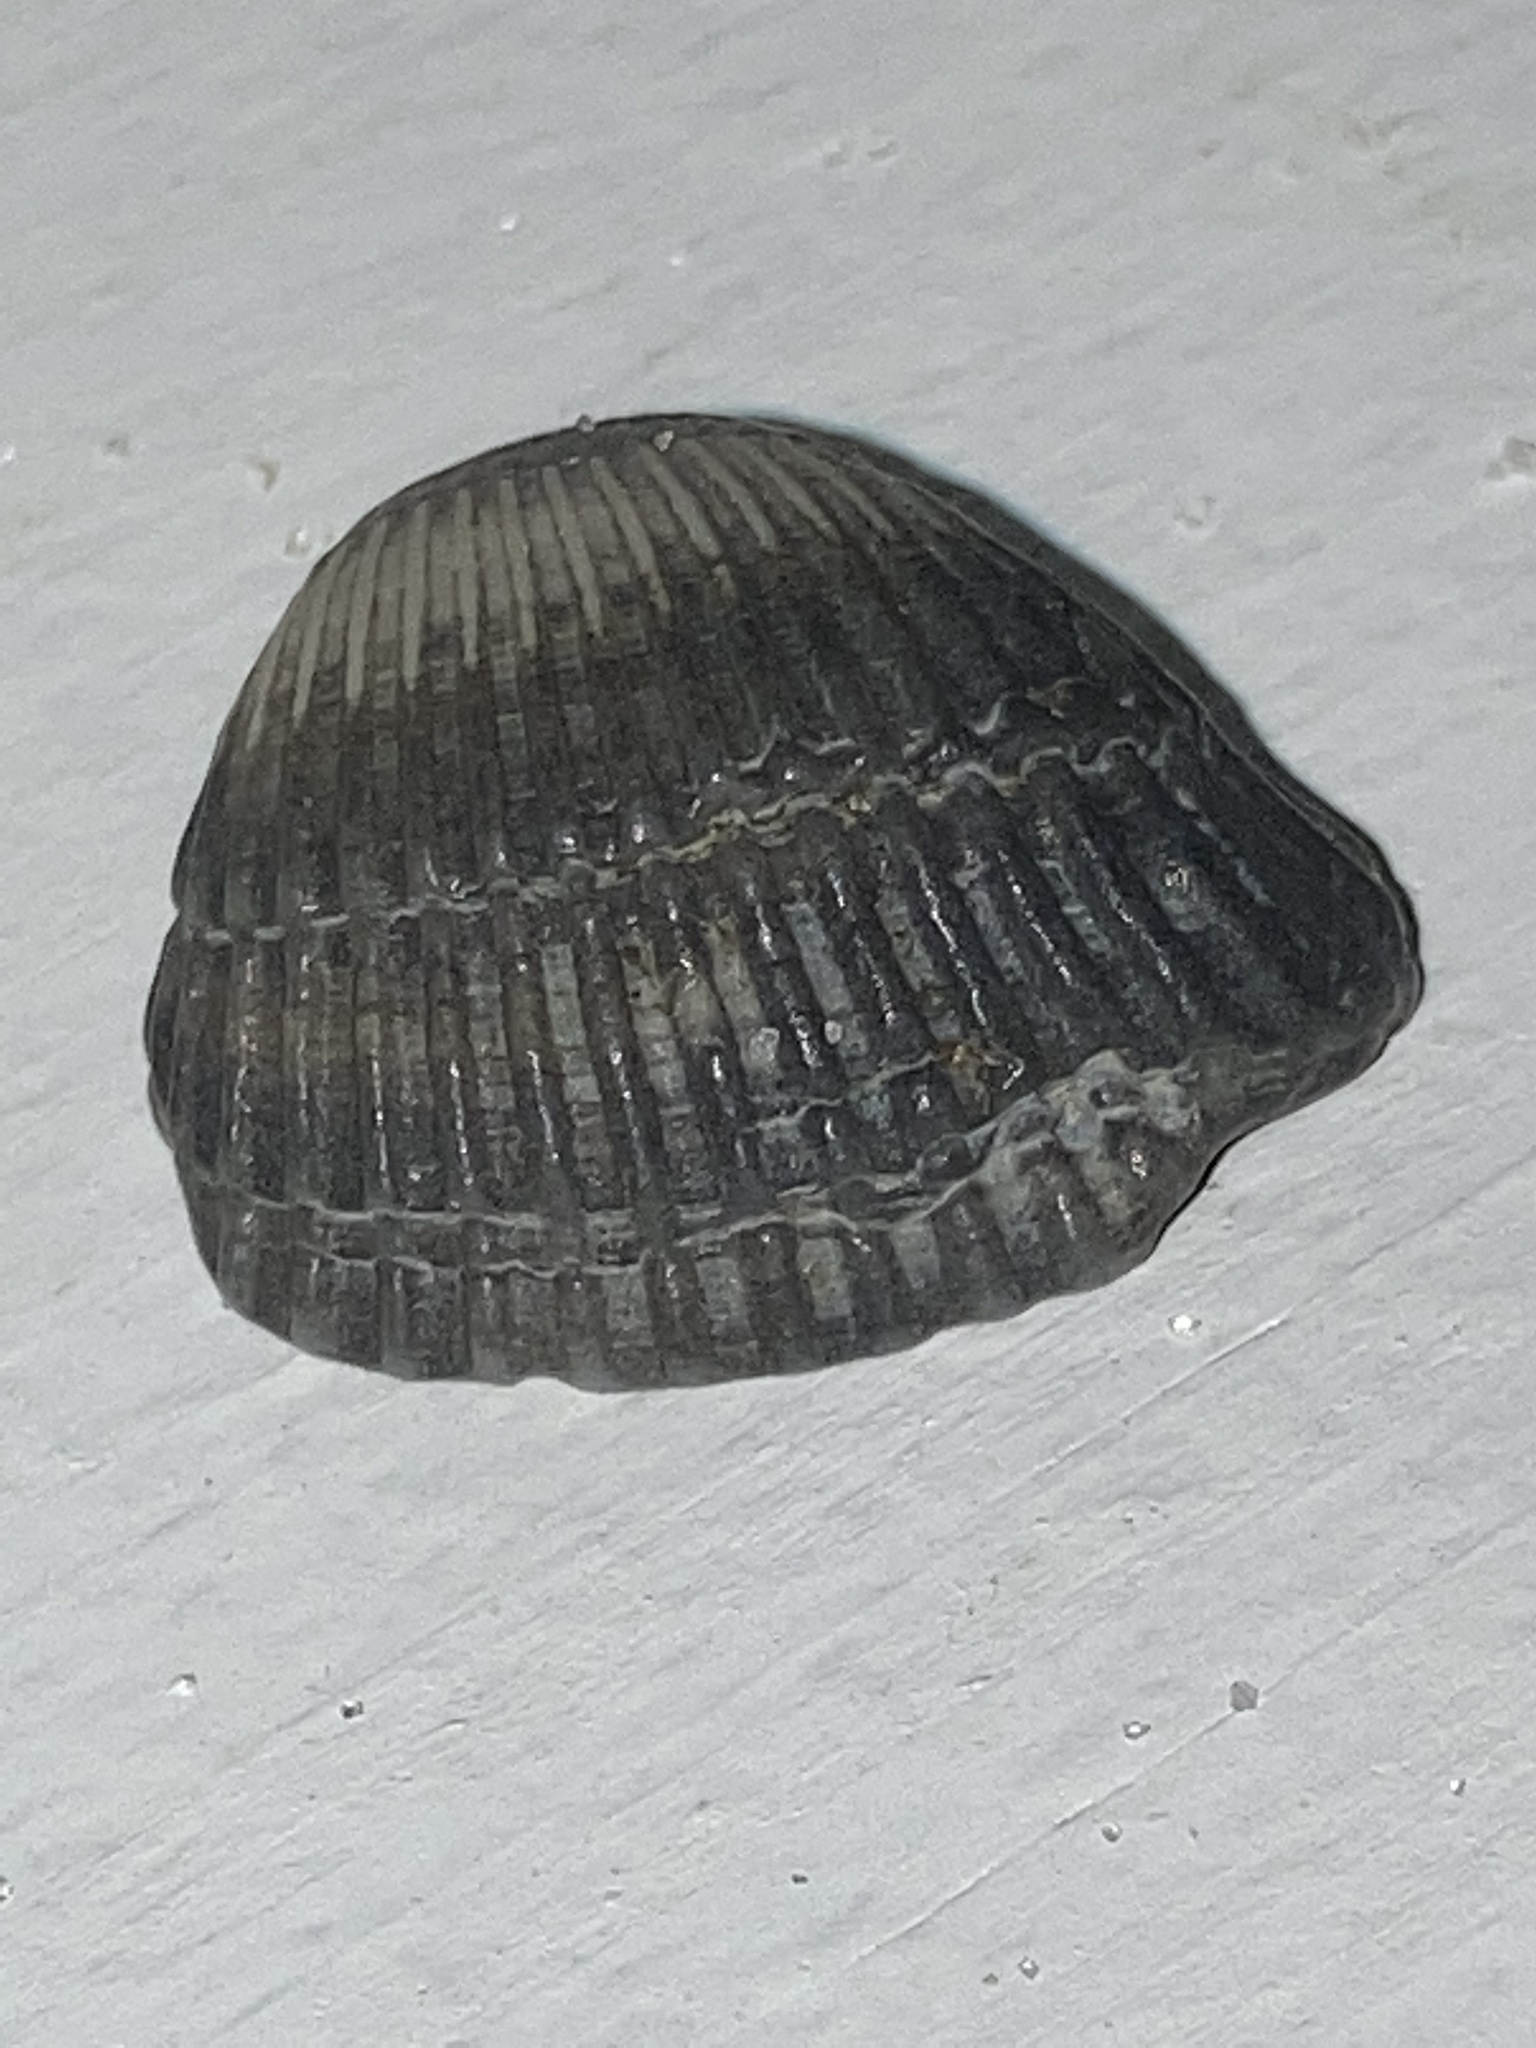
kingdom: Animalia
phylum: Mollusca
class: Bivalvia
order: Arcida
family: Noetiidae
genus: Noetia
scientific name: Noetia ponderosa
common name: Ponderous ark
